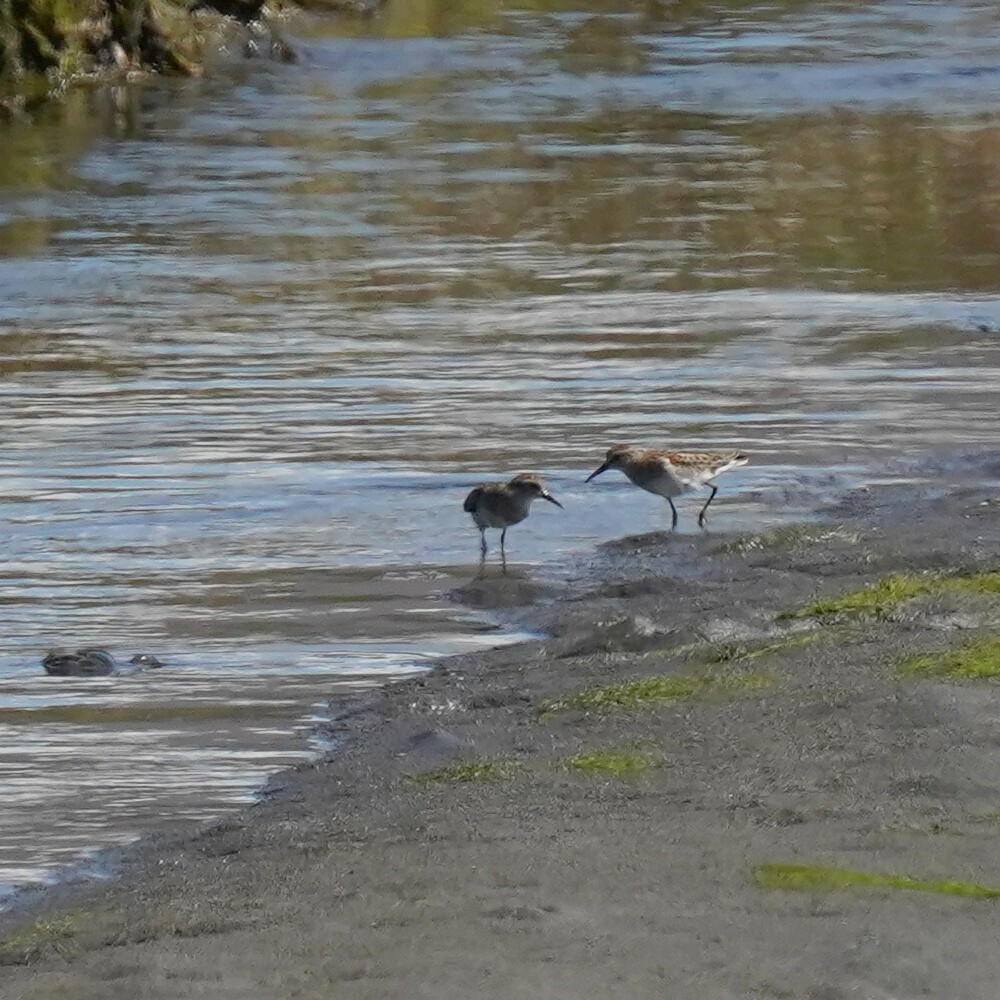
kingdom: Animalia
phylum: Chordata
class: Aves
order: Charadriiformes
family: Scolopacidae
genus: Calidris
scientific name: Calidris minutilla
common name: Least sandpiper
